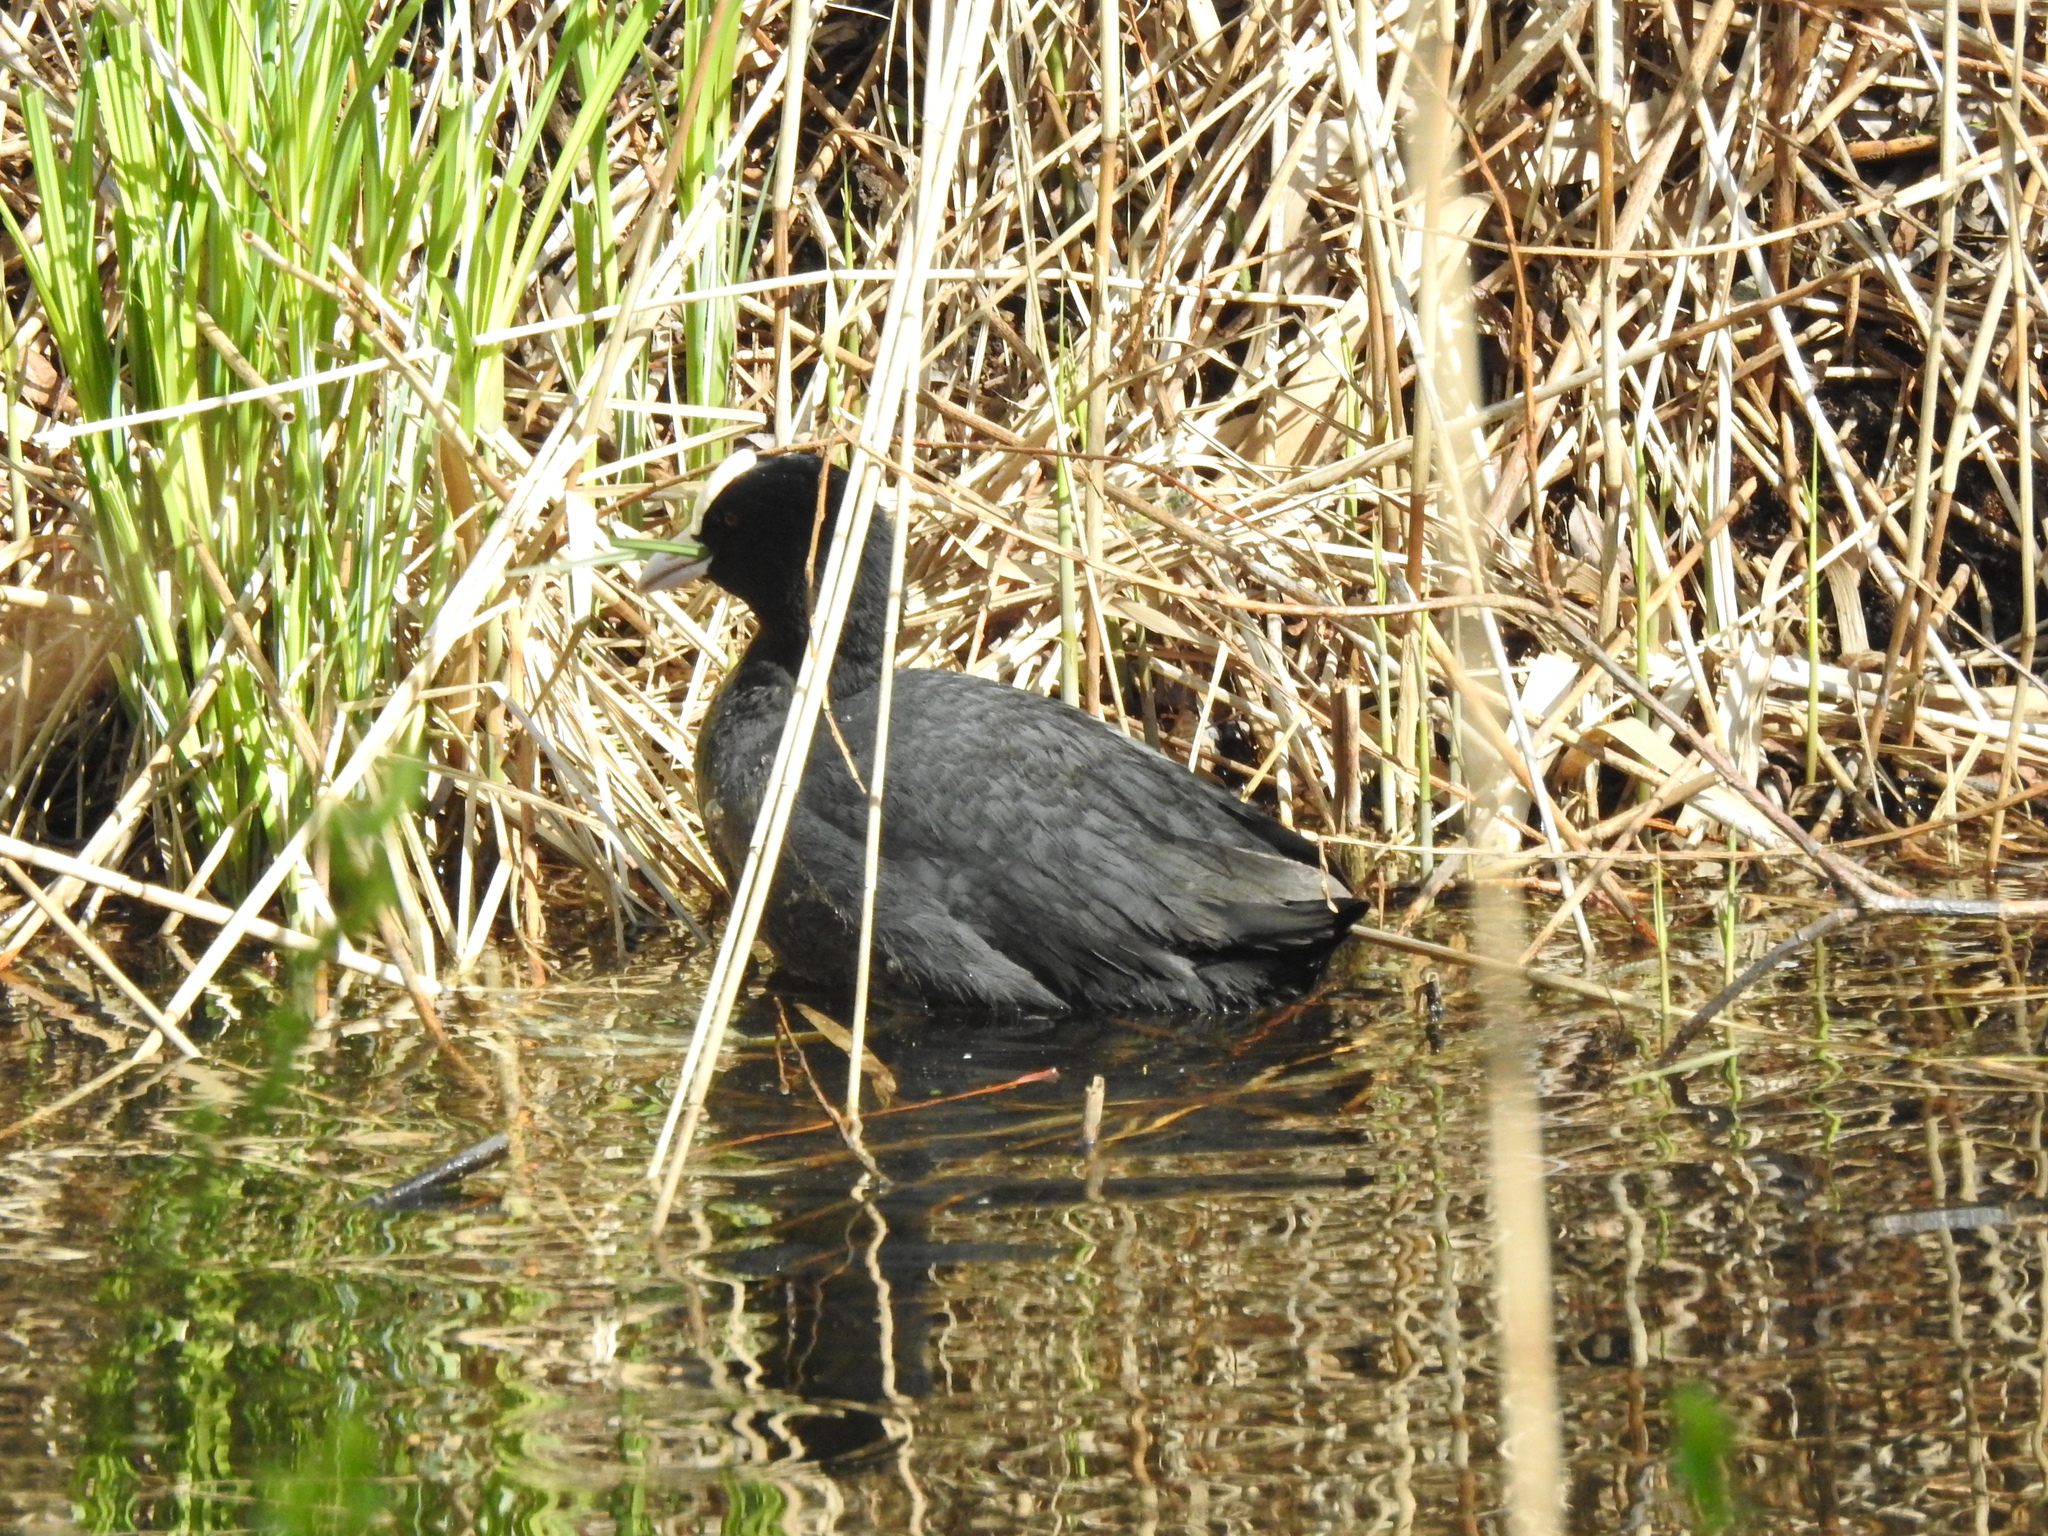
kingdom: Animalia
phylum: Chordata
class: Aves
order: Gruiformes
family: Rallidae
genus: Fulica
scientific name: Fulica atra
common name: Eurasian coot
